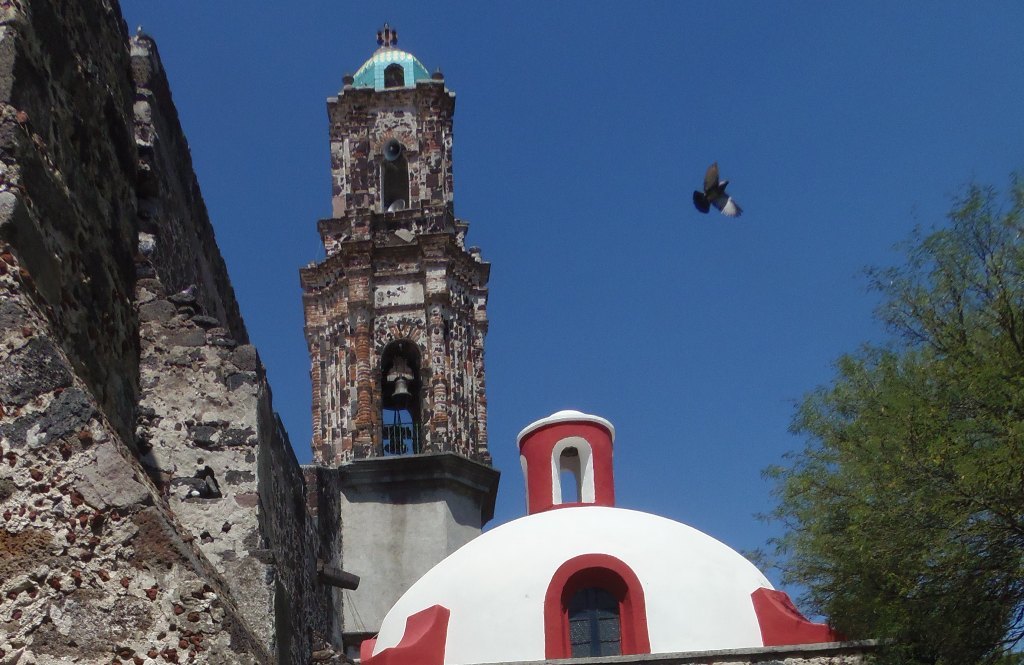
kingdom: Animalia
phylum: Chordata
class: Aves
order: Columbiformes
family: Columbidae
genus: Columba
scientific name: Columba livia
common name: Rock pigeon
